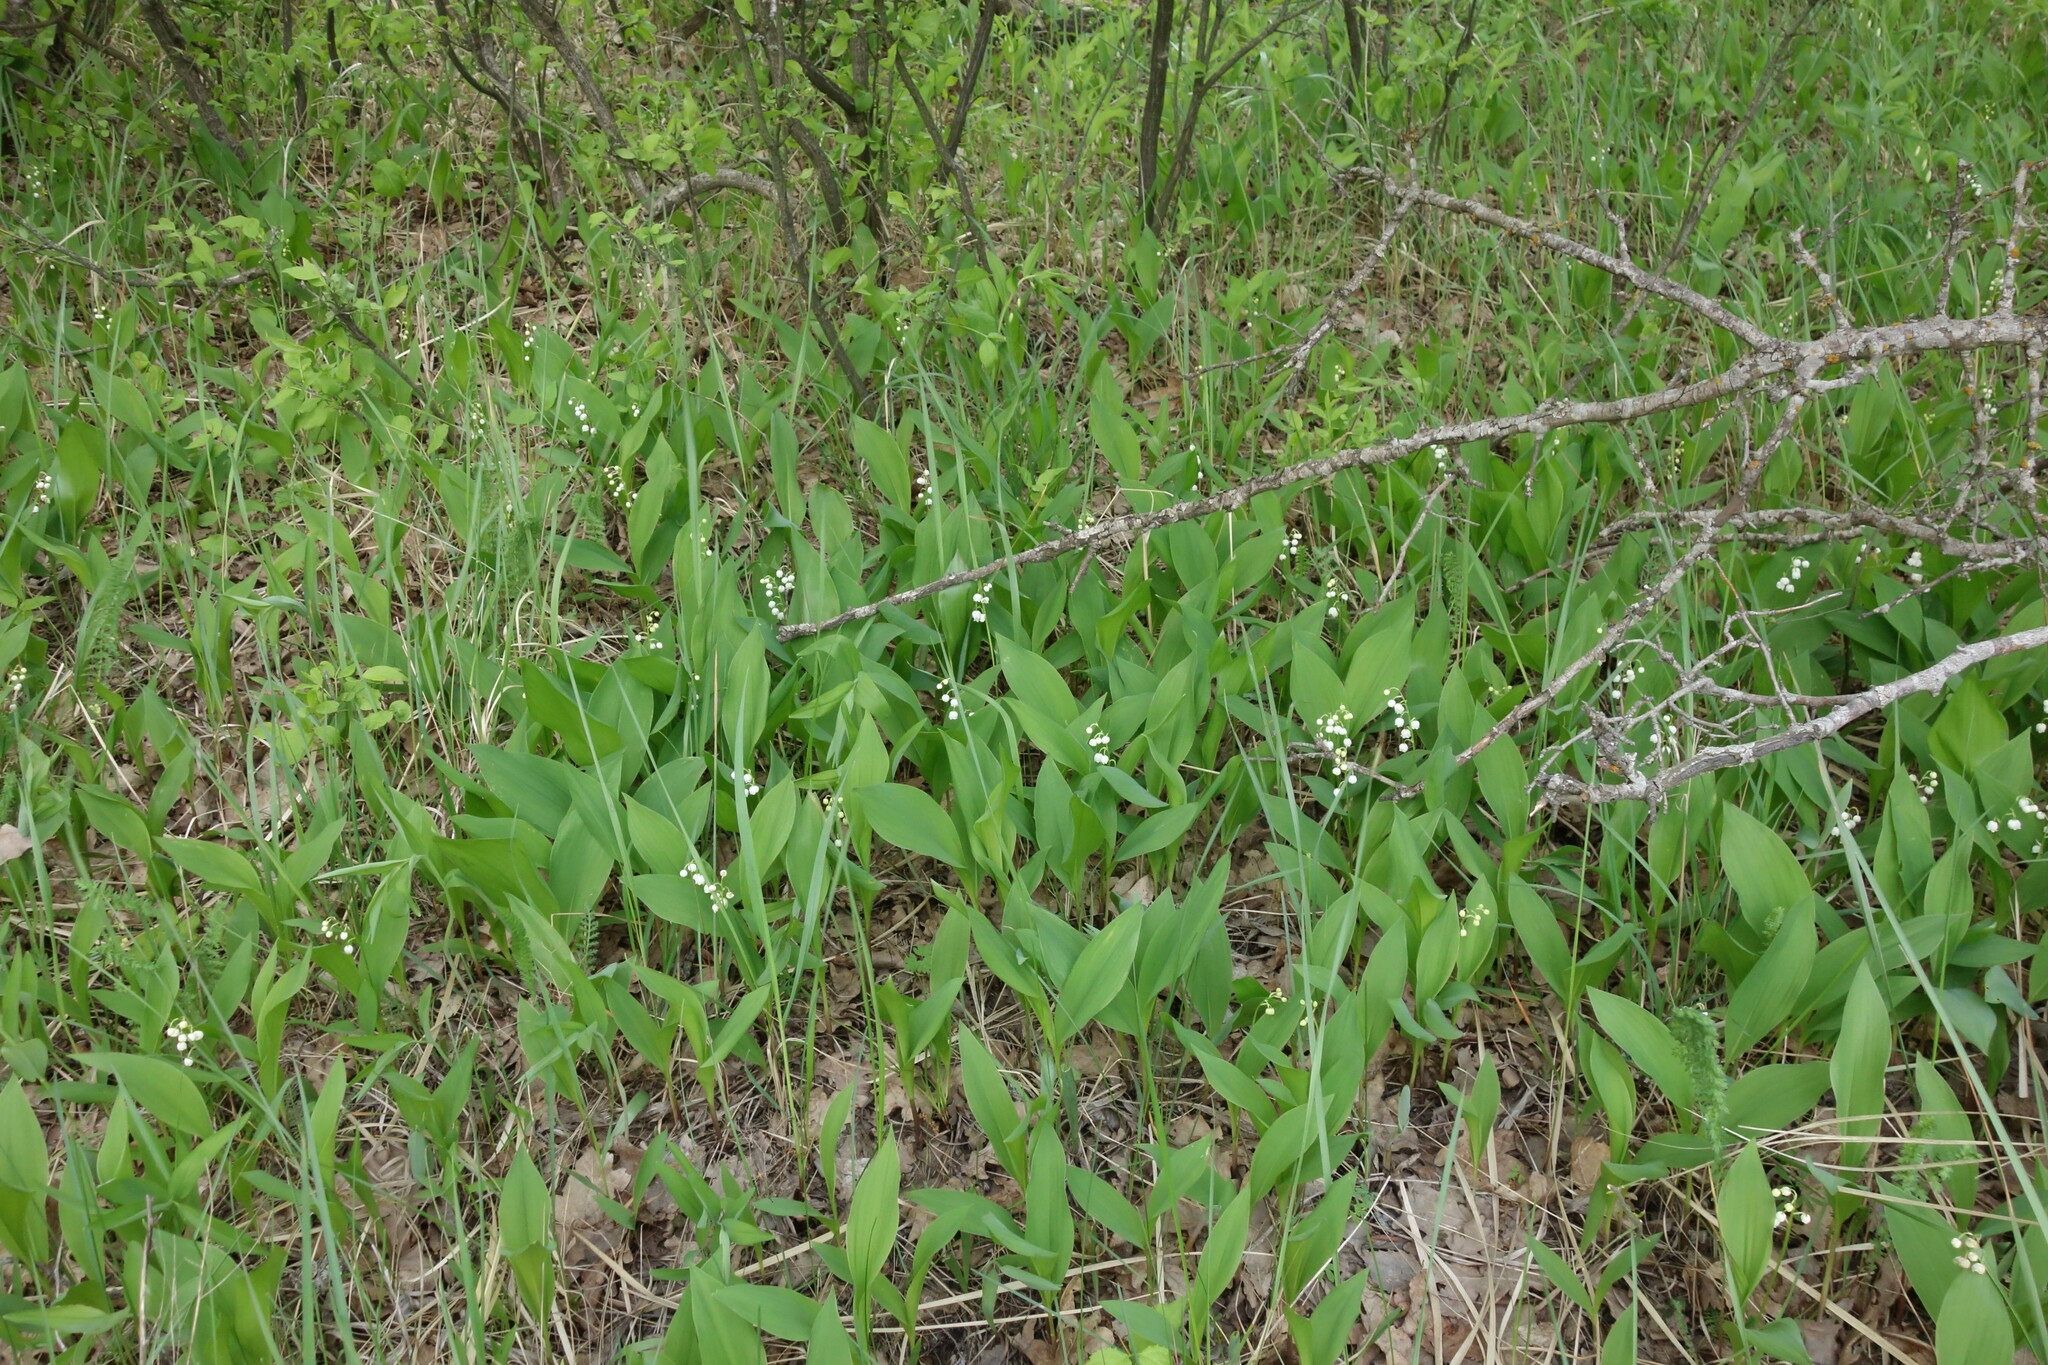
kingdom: Plantae
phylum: Tracheophyta
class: Liliopsida
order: Asparagales
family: Asparagaceae
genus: Convallaria
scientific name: Convallaria majalis
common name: Lily-of-the-valley
